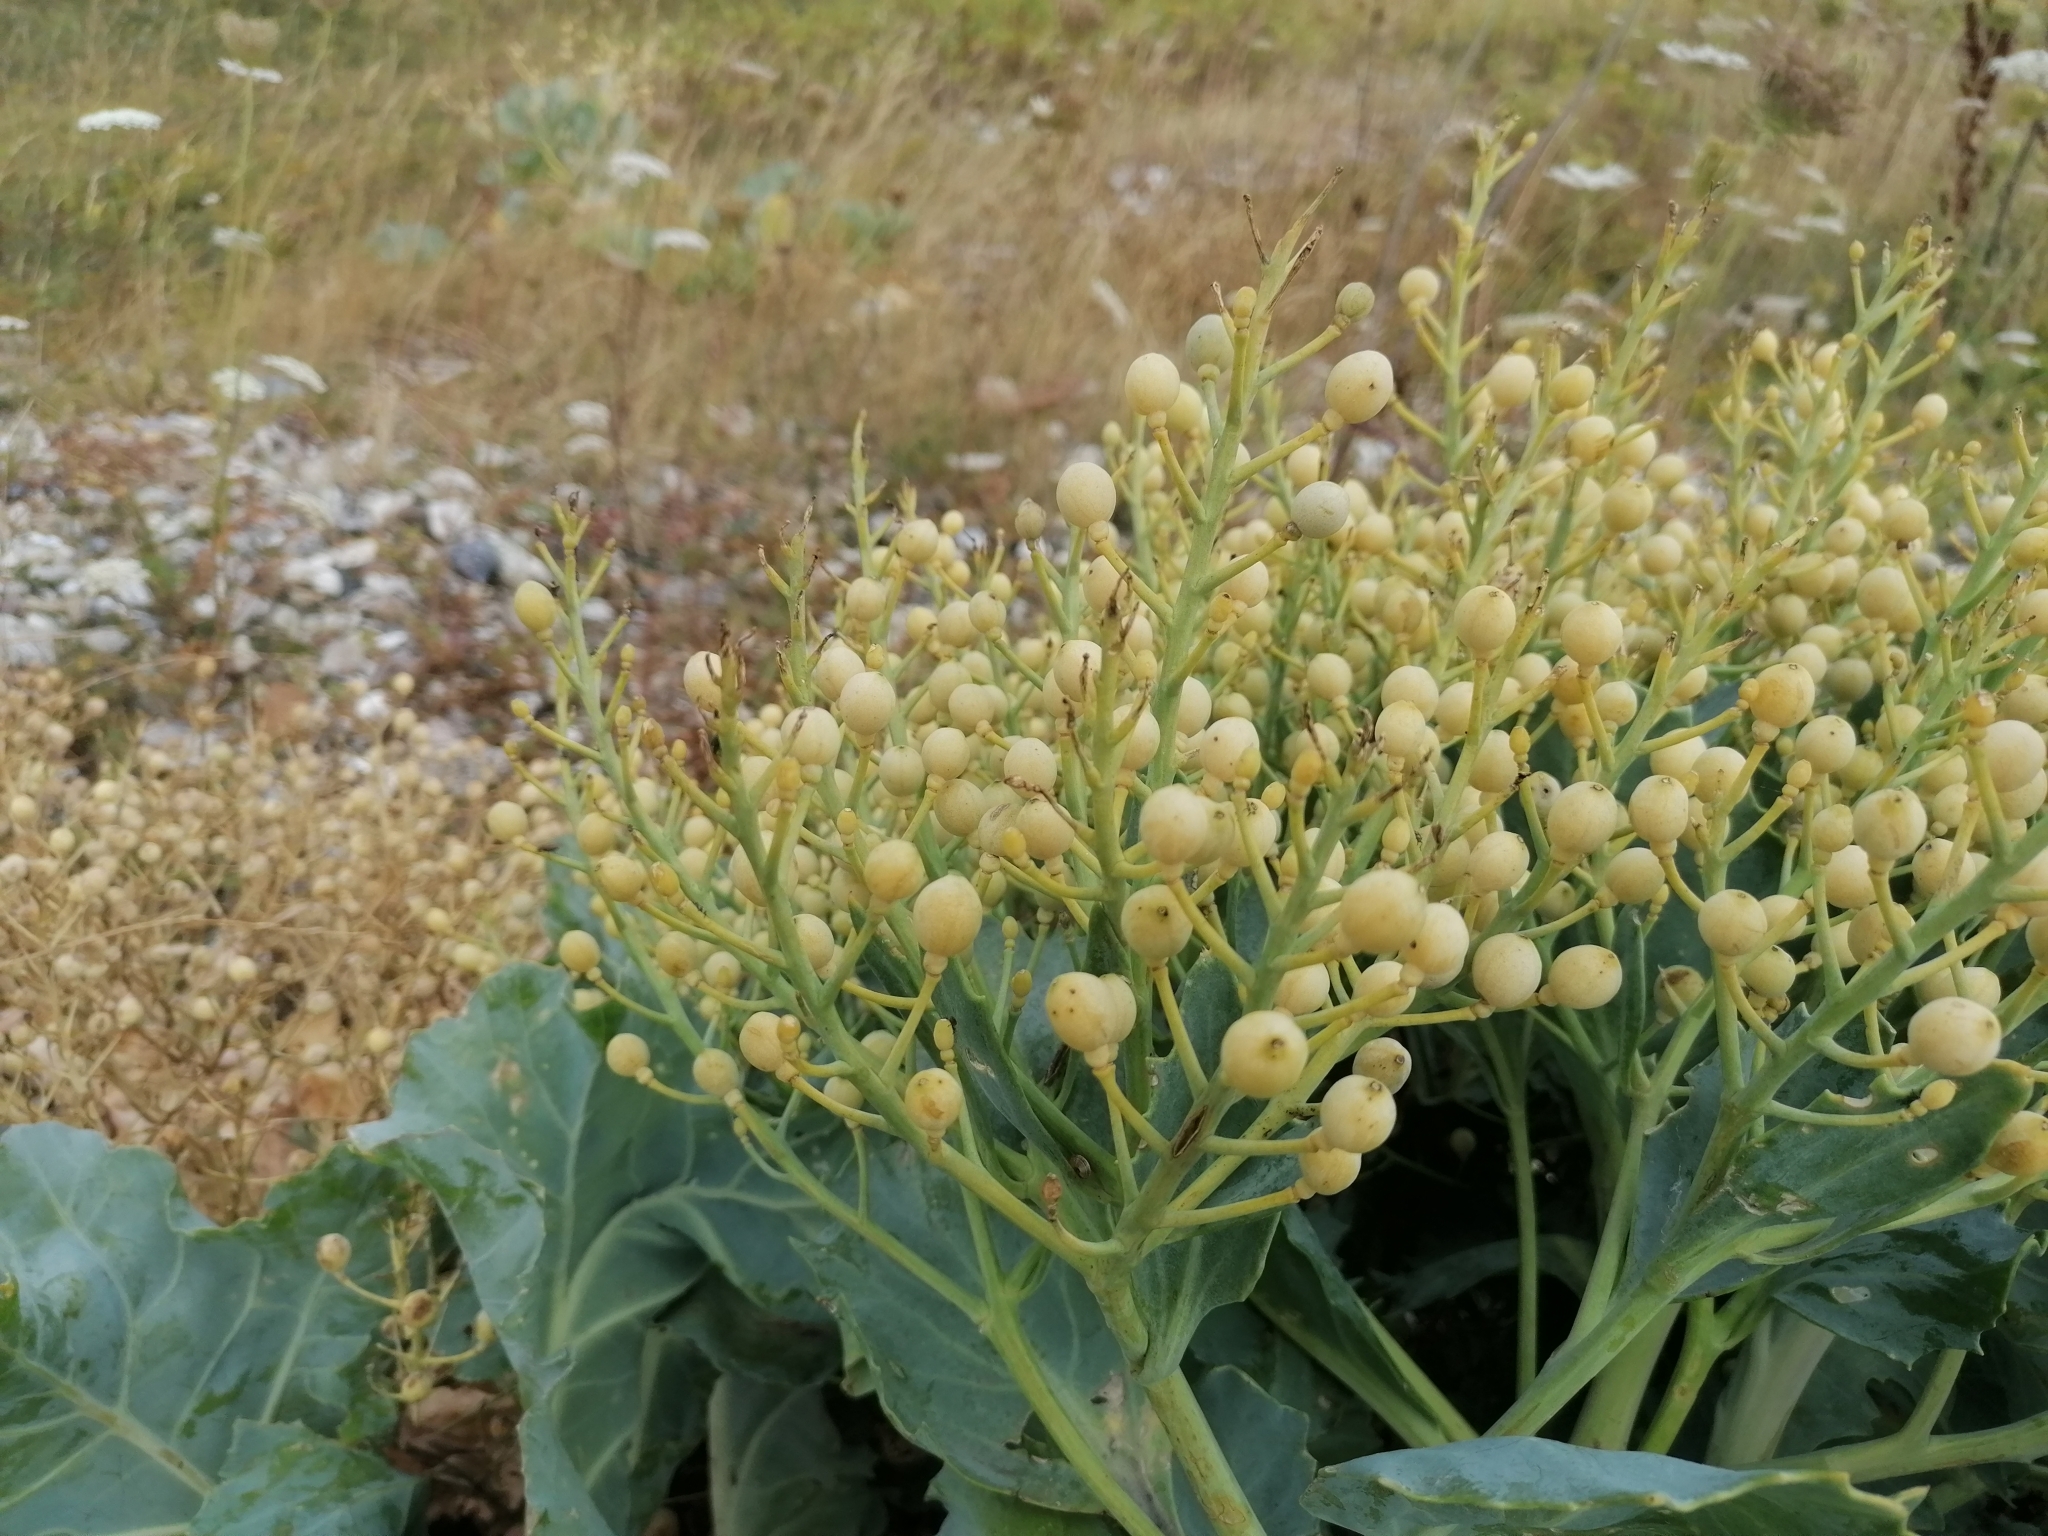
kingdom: Plantae
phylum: Tracheophyta
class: Magnoliopsida
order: Brassicales
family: Brassicaceae
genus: Crambe
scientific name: Crambe maritima
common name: Sea-kale
